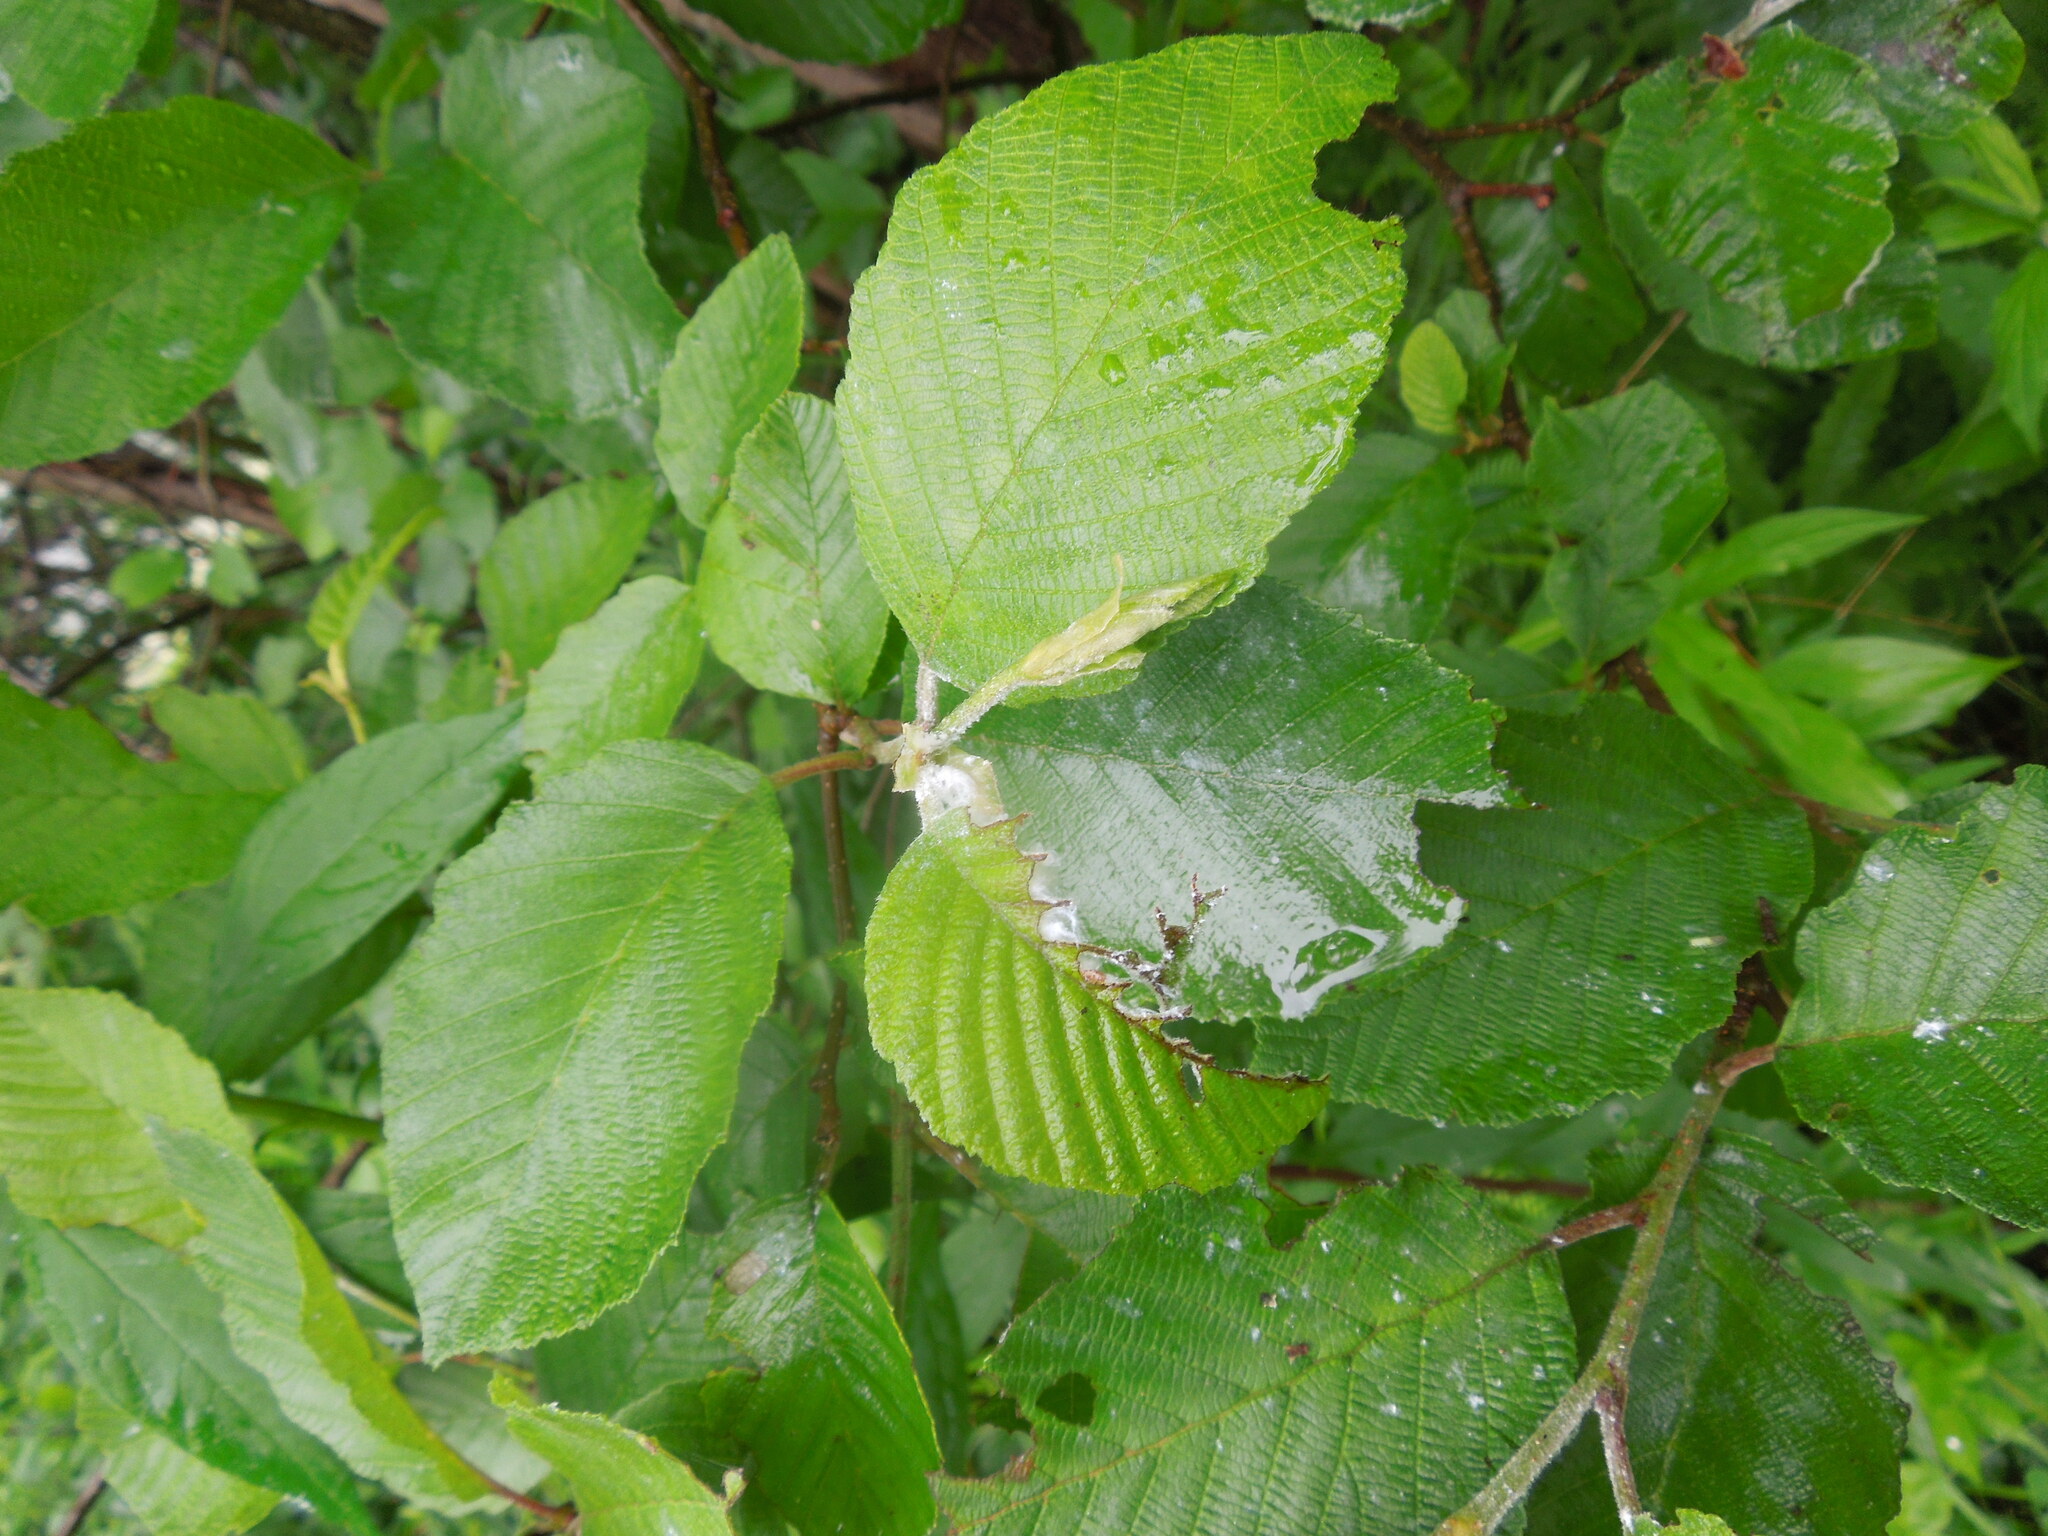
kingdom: Animalia
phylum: Arthropoda
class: Insecta
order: Hemiptera
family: Psyllidae
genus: Psylla
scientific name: Psylla
